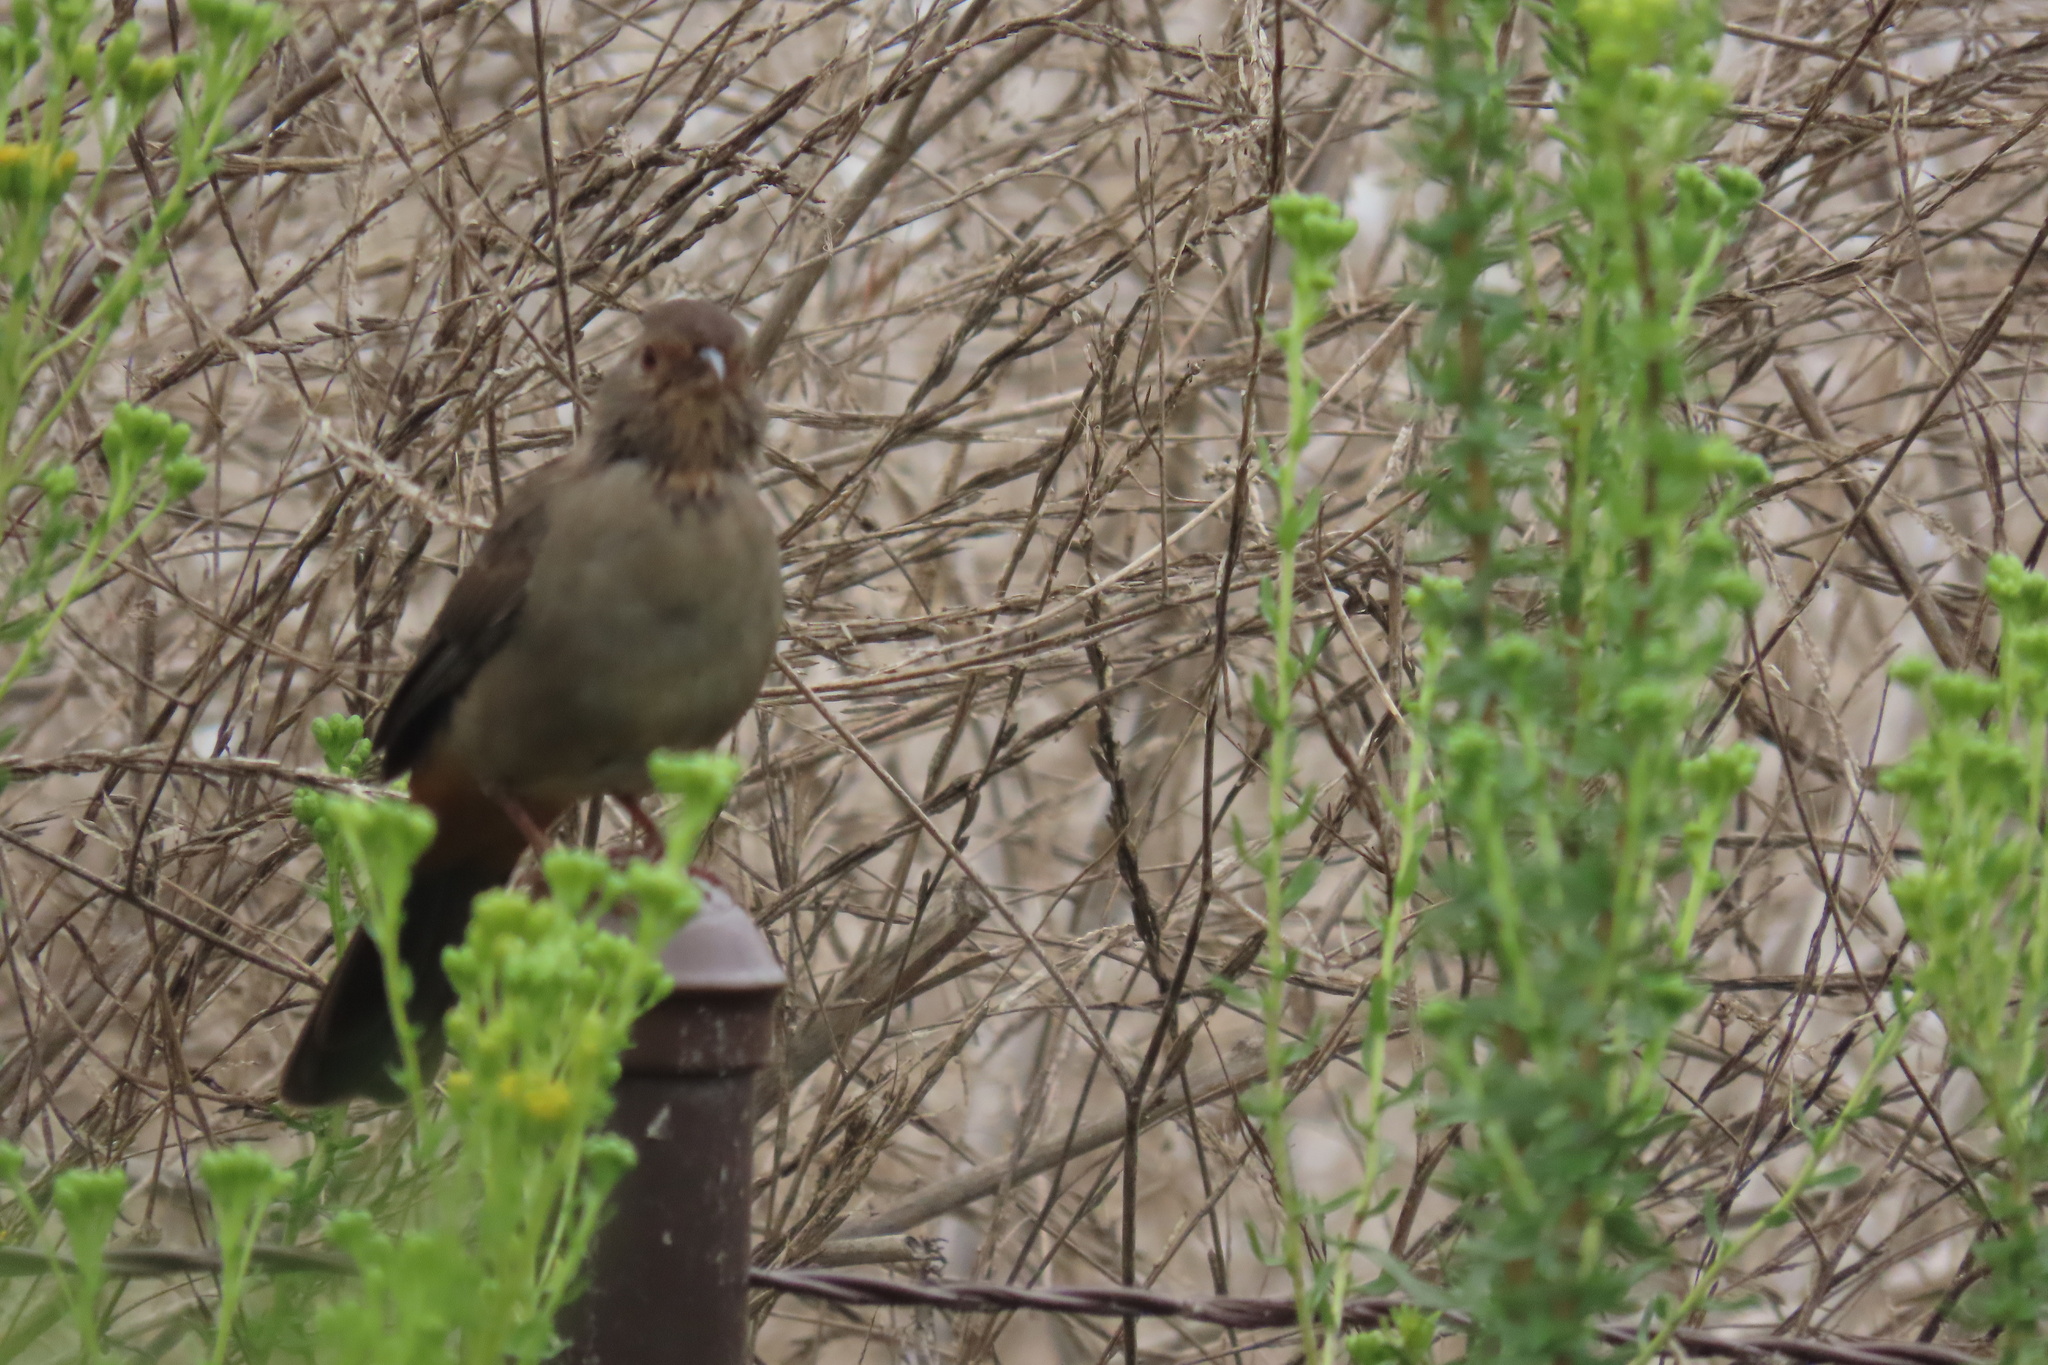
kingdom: Animalia
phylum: Chordata
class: Aves
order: Passeriformes
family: Passerellidae
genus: Melozone
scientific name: Melozone crissalis
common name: California towhee
